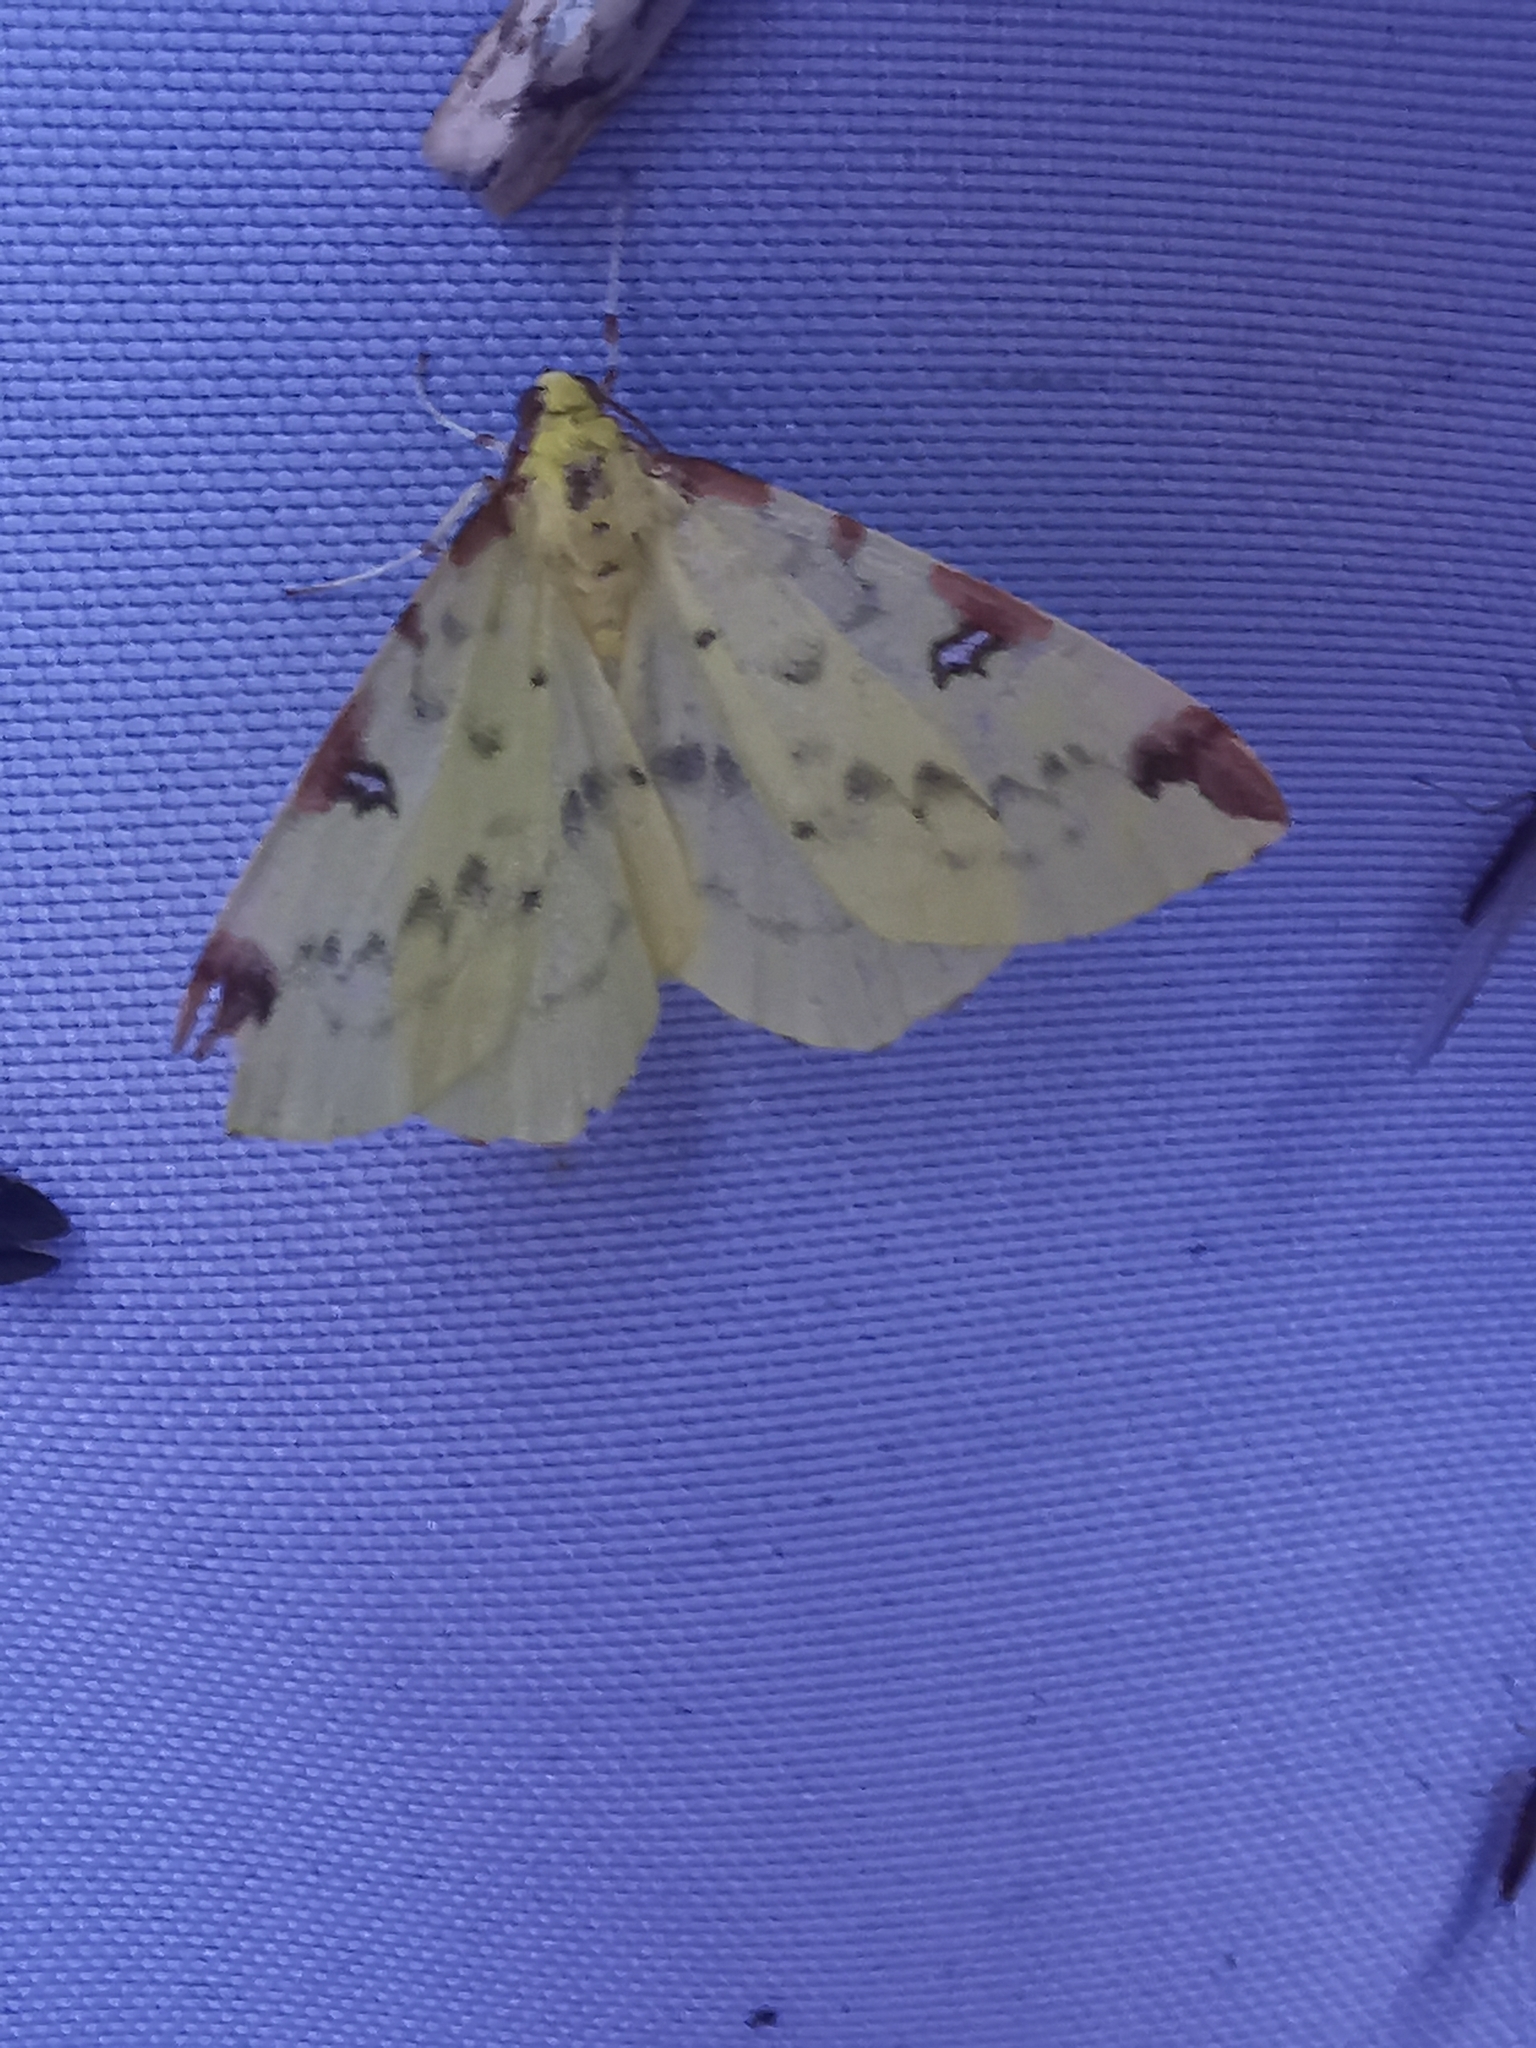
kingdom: Animalia
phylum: Arthropoda
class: Insecta
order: Lepidoptera
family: Geometridae
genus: Opisthograptis
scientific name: Opisthograptis luteolata
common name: Brimstone moth
